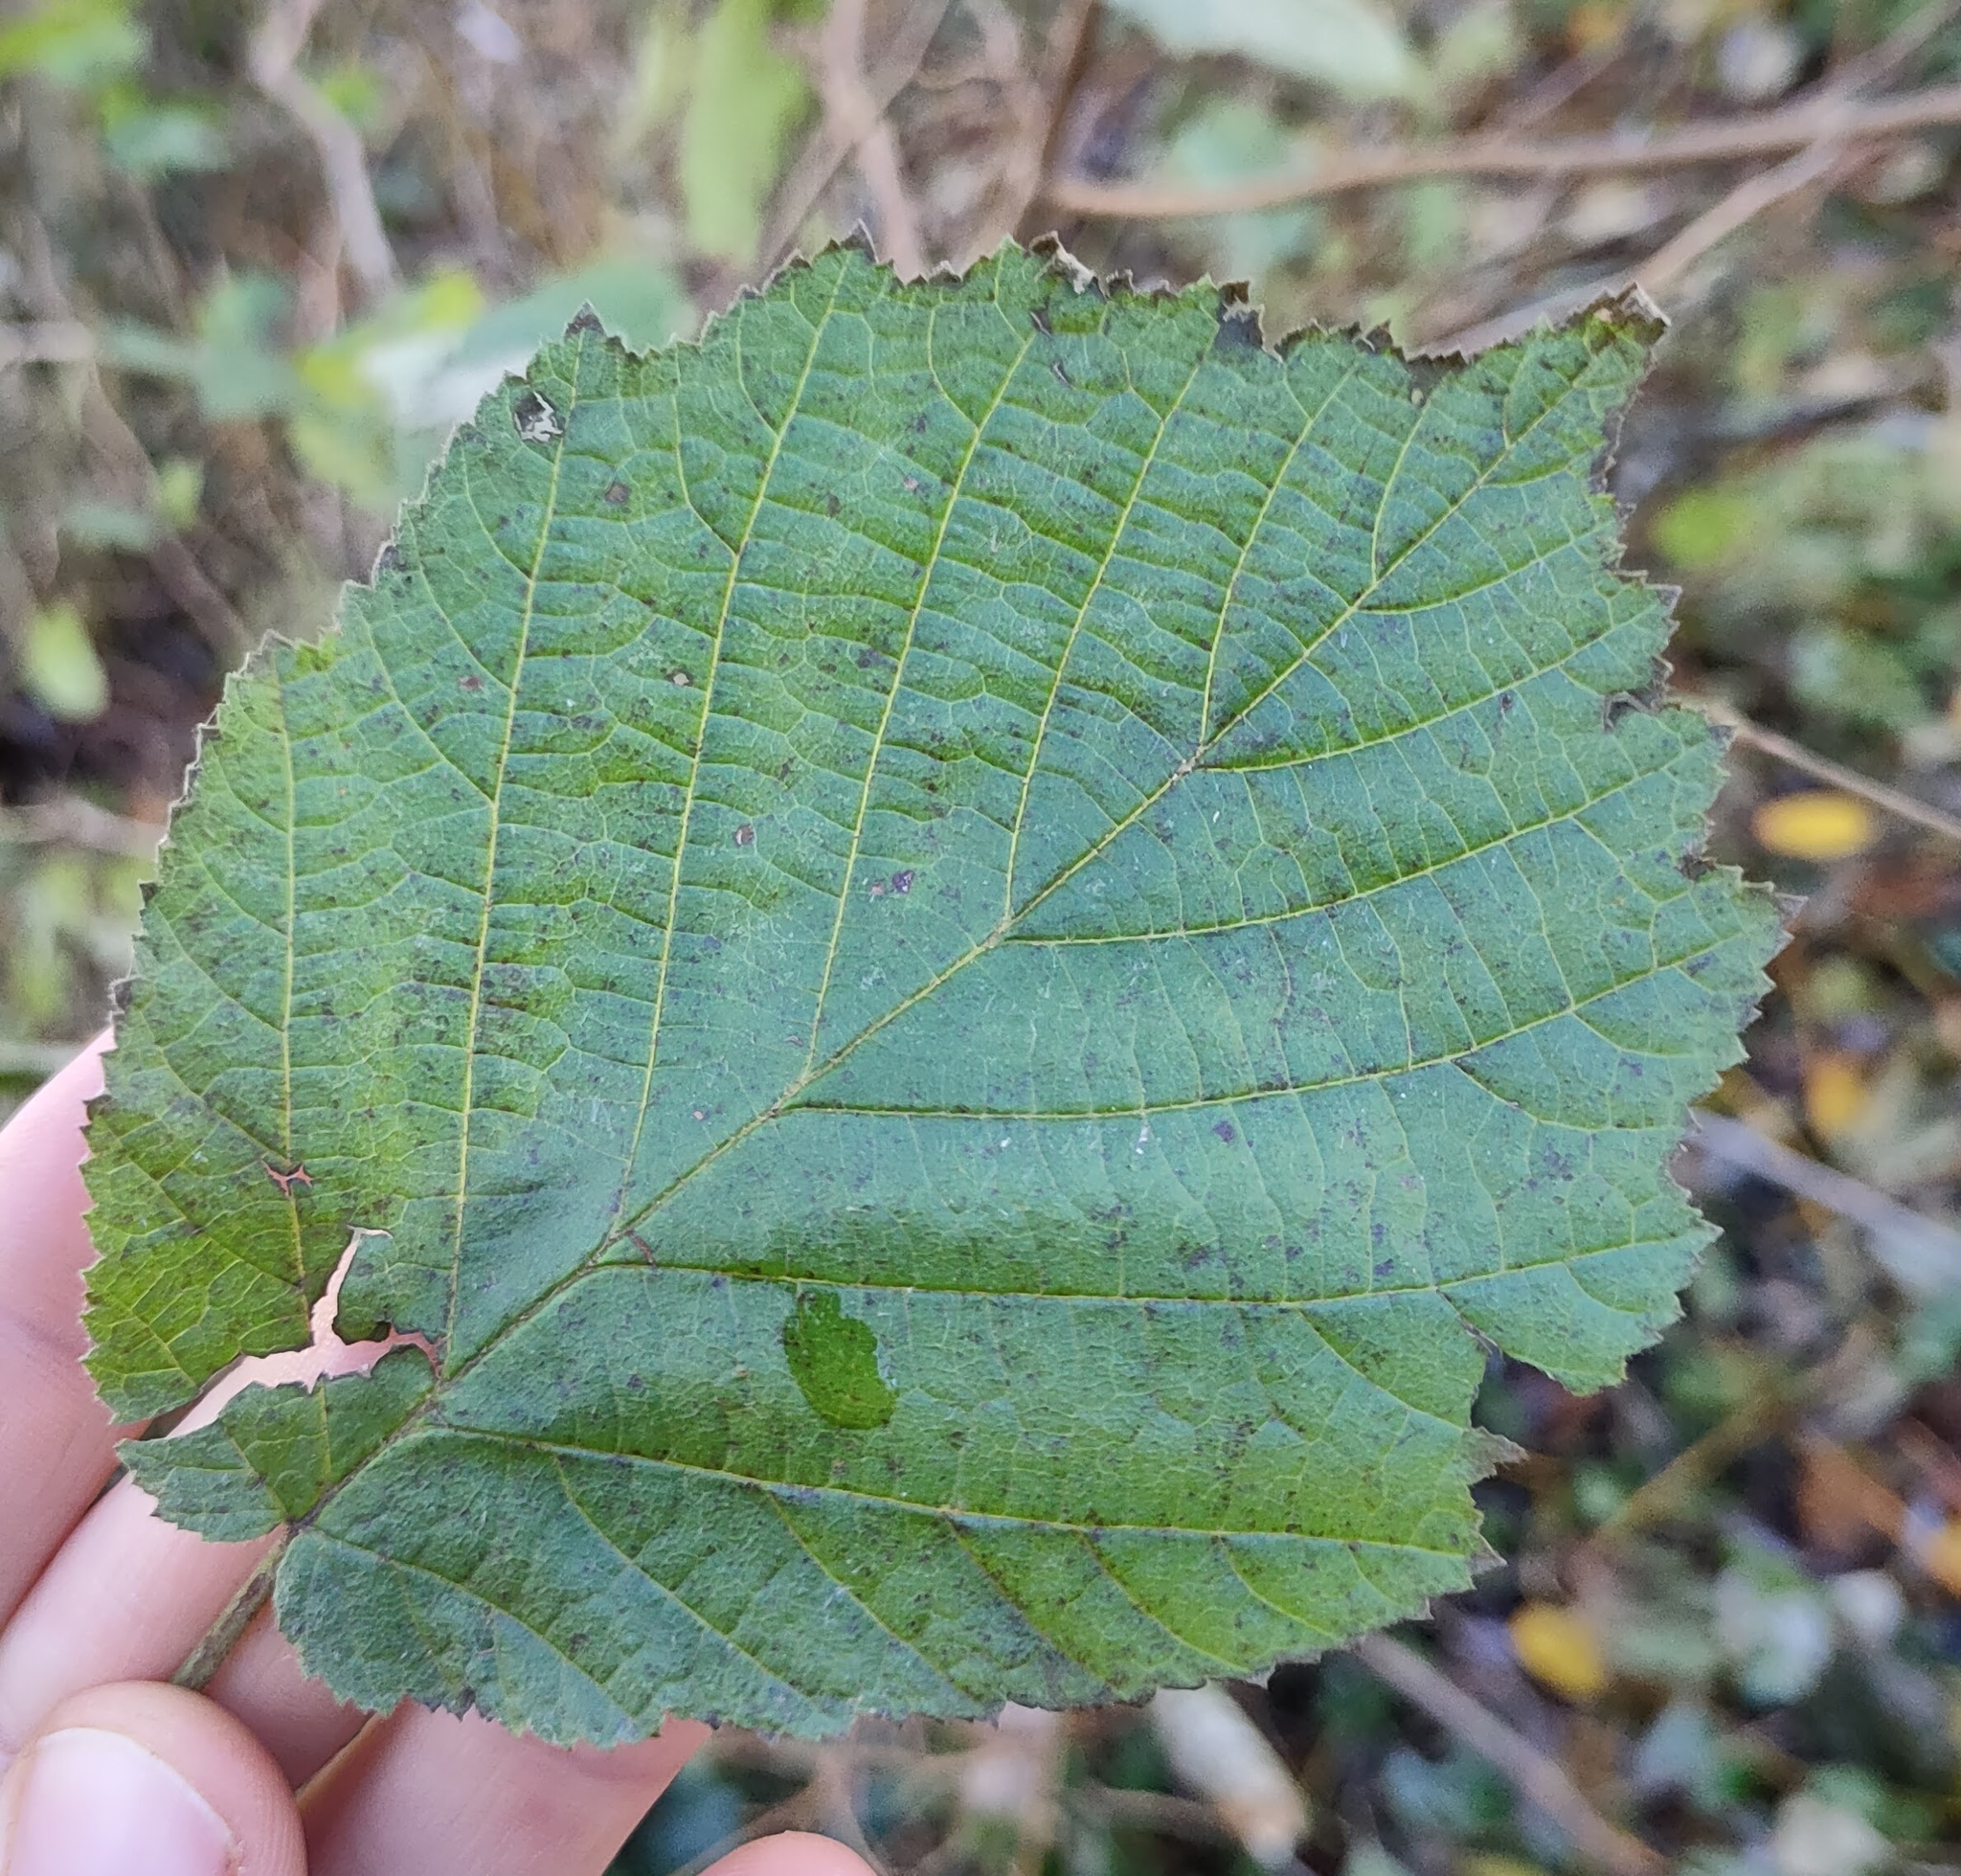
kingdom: Plantae
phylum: Tracheophyta
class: Magnoliopsida
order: Fagales
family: Betulaceae
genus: Corylus
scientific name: Corylus avellana
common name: European hazel
